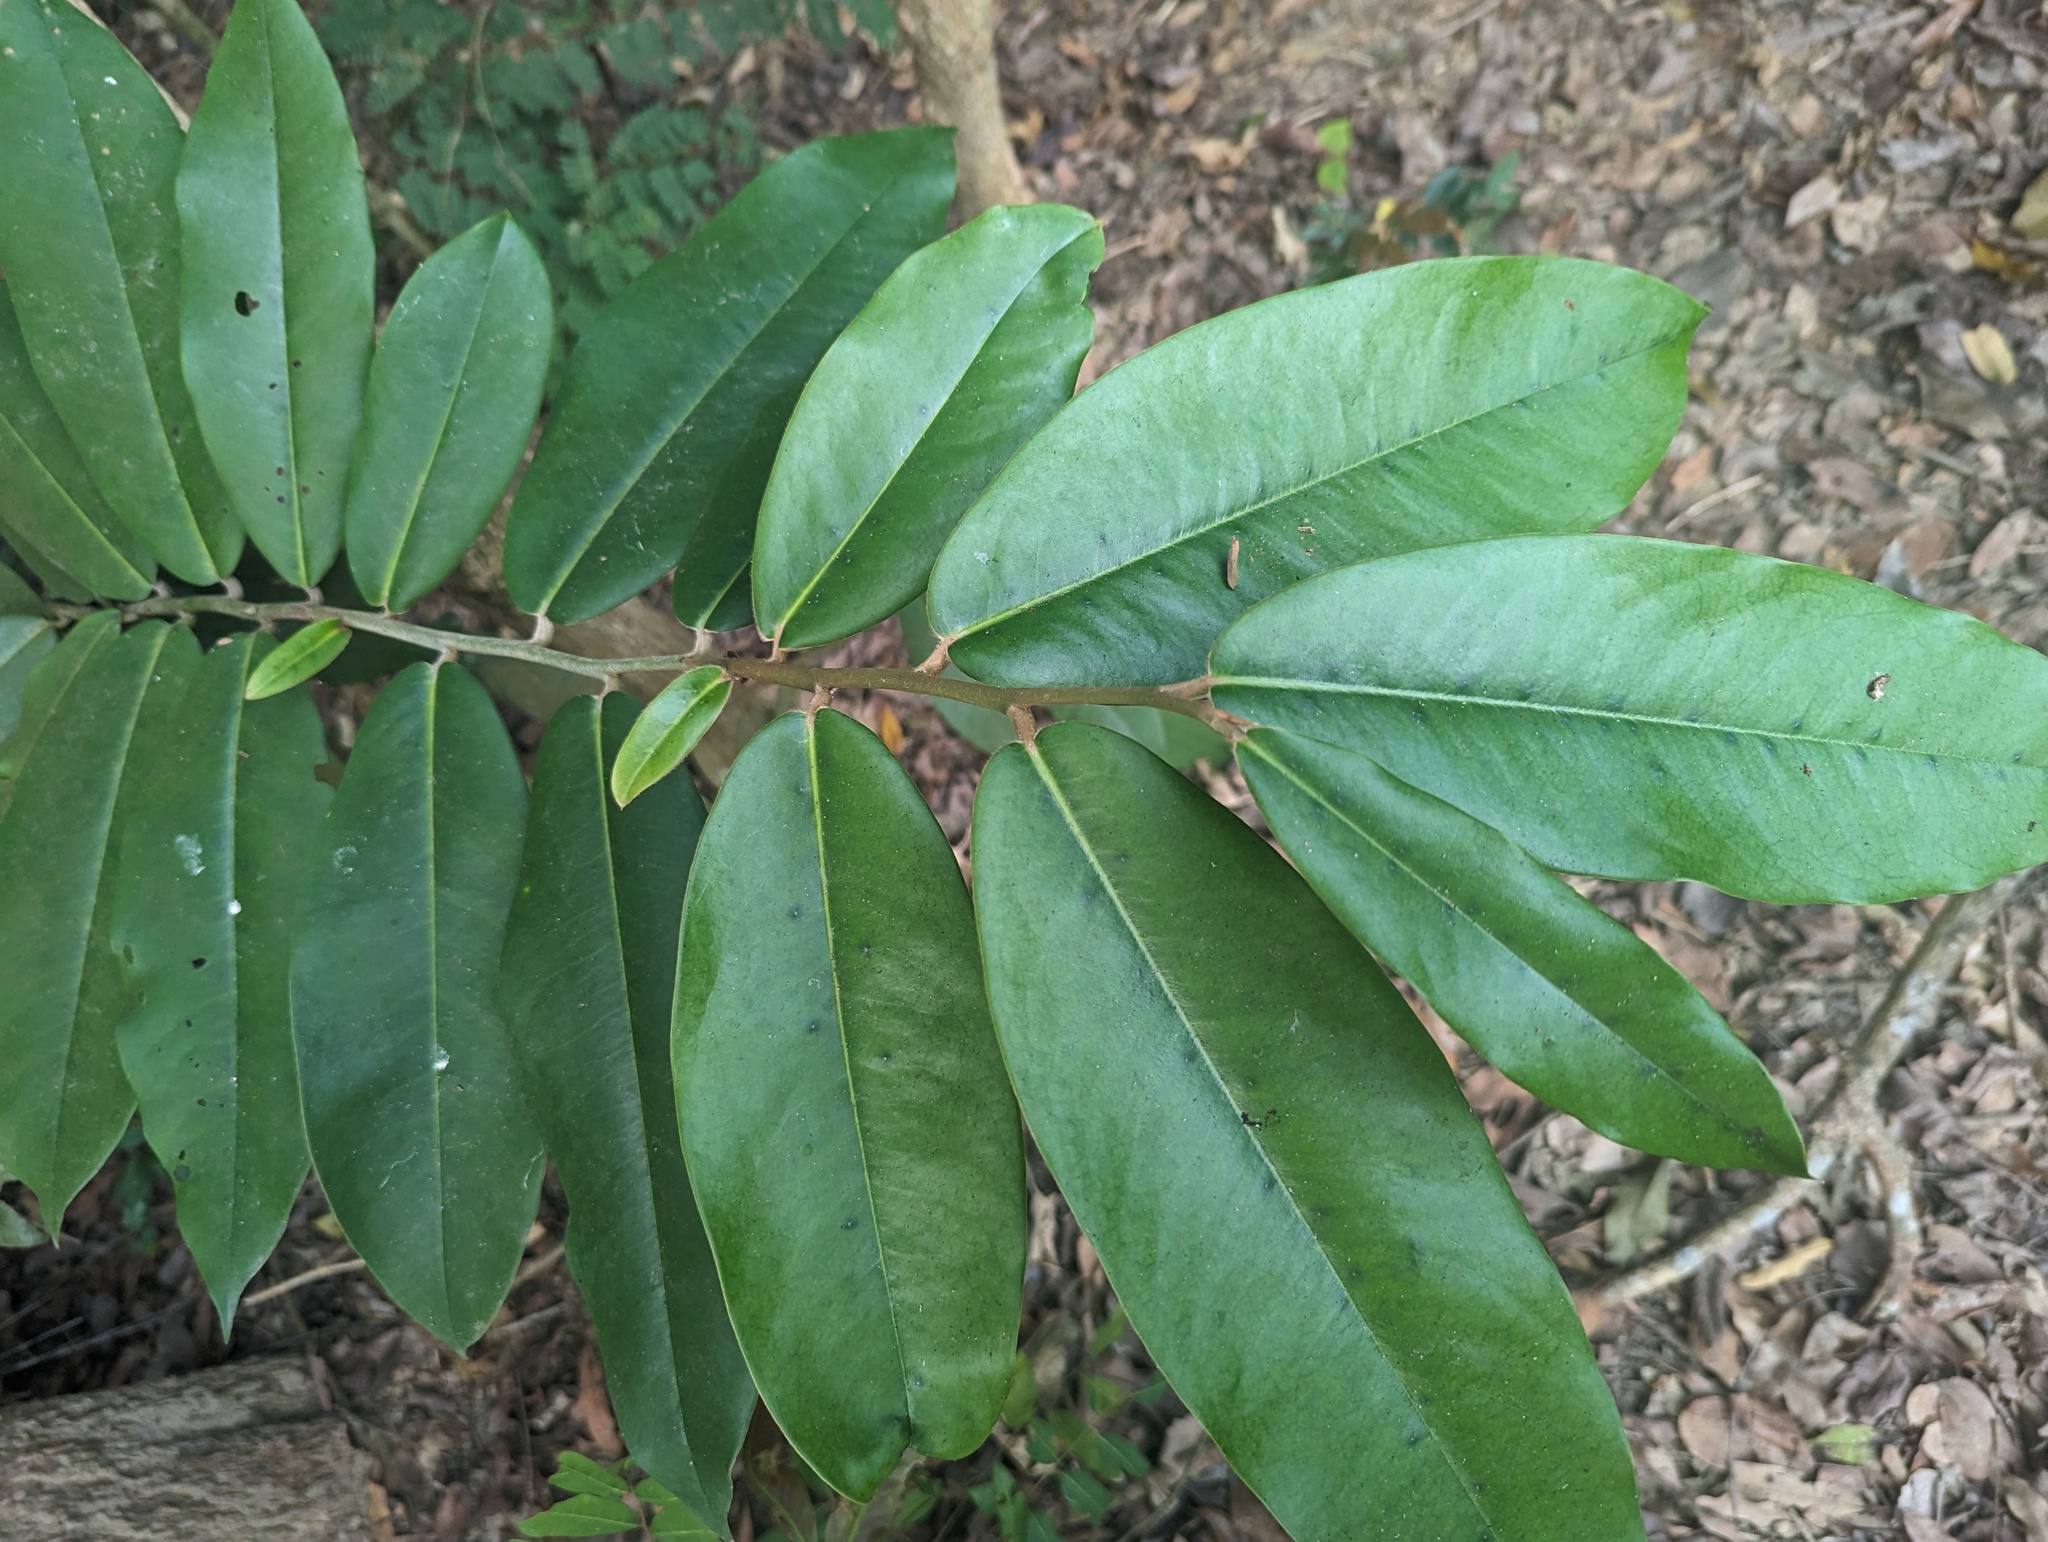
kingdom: Plantae
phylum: Tracheophyta
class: Magnoliopsida
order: Ericales
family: Ebenaceae
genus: Diospyros
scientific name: Diospyros blancoi
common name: Mabola-tree
